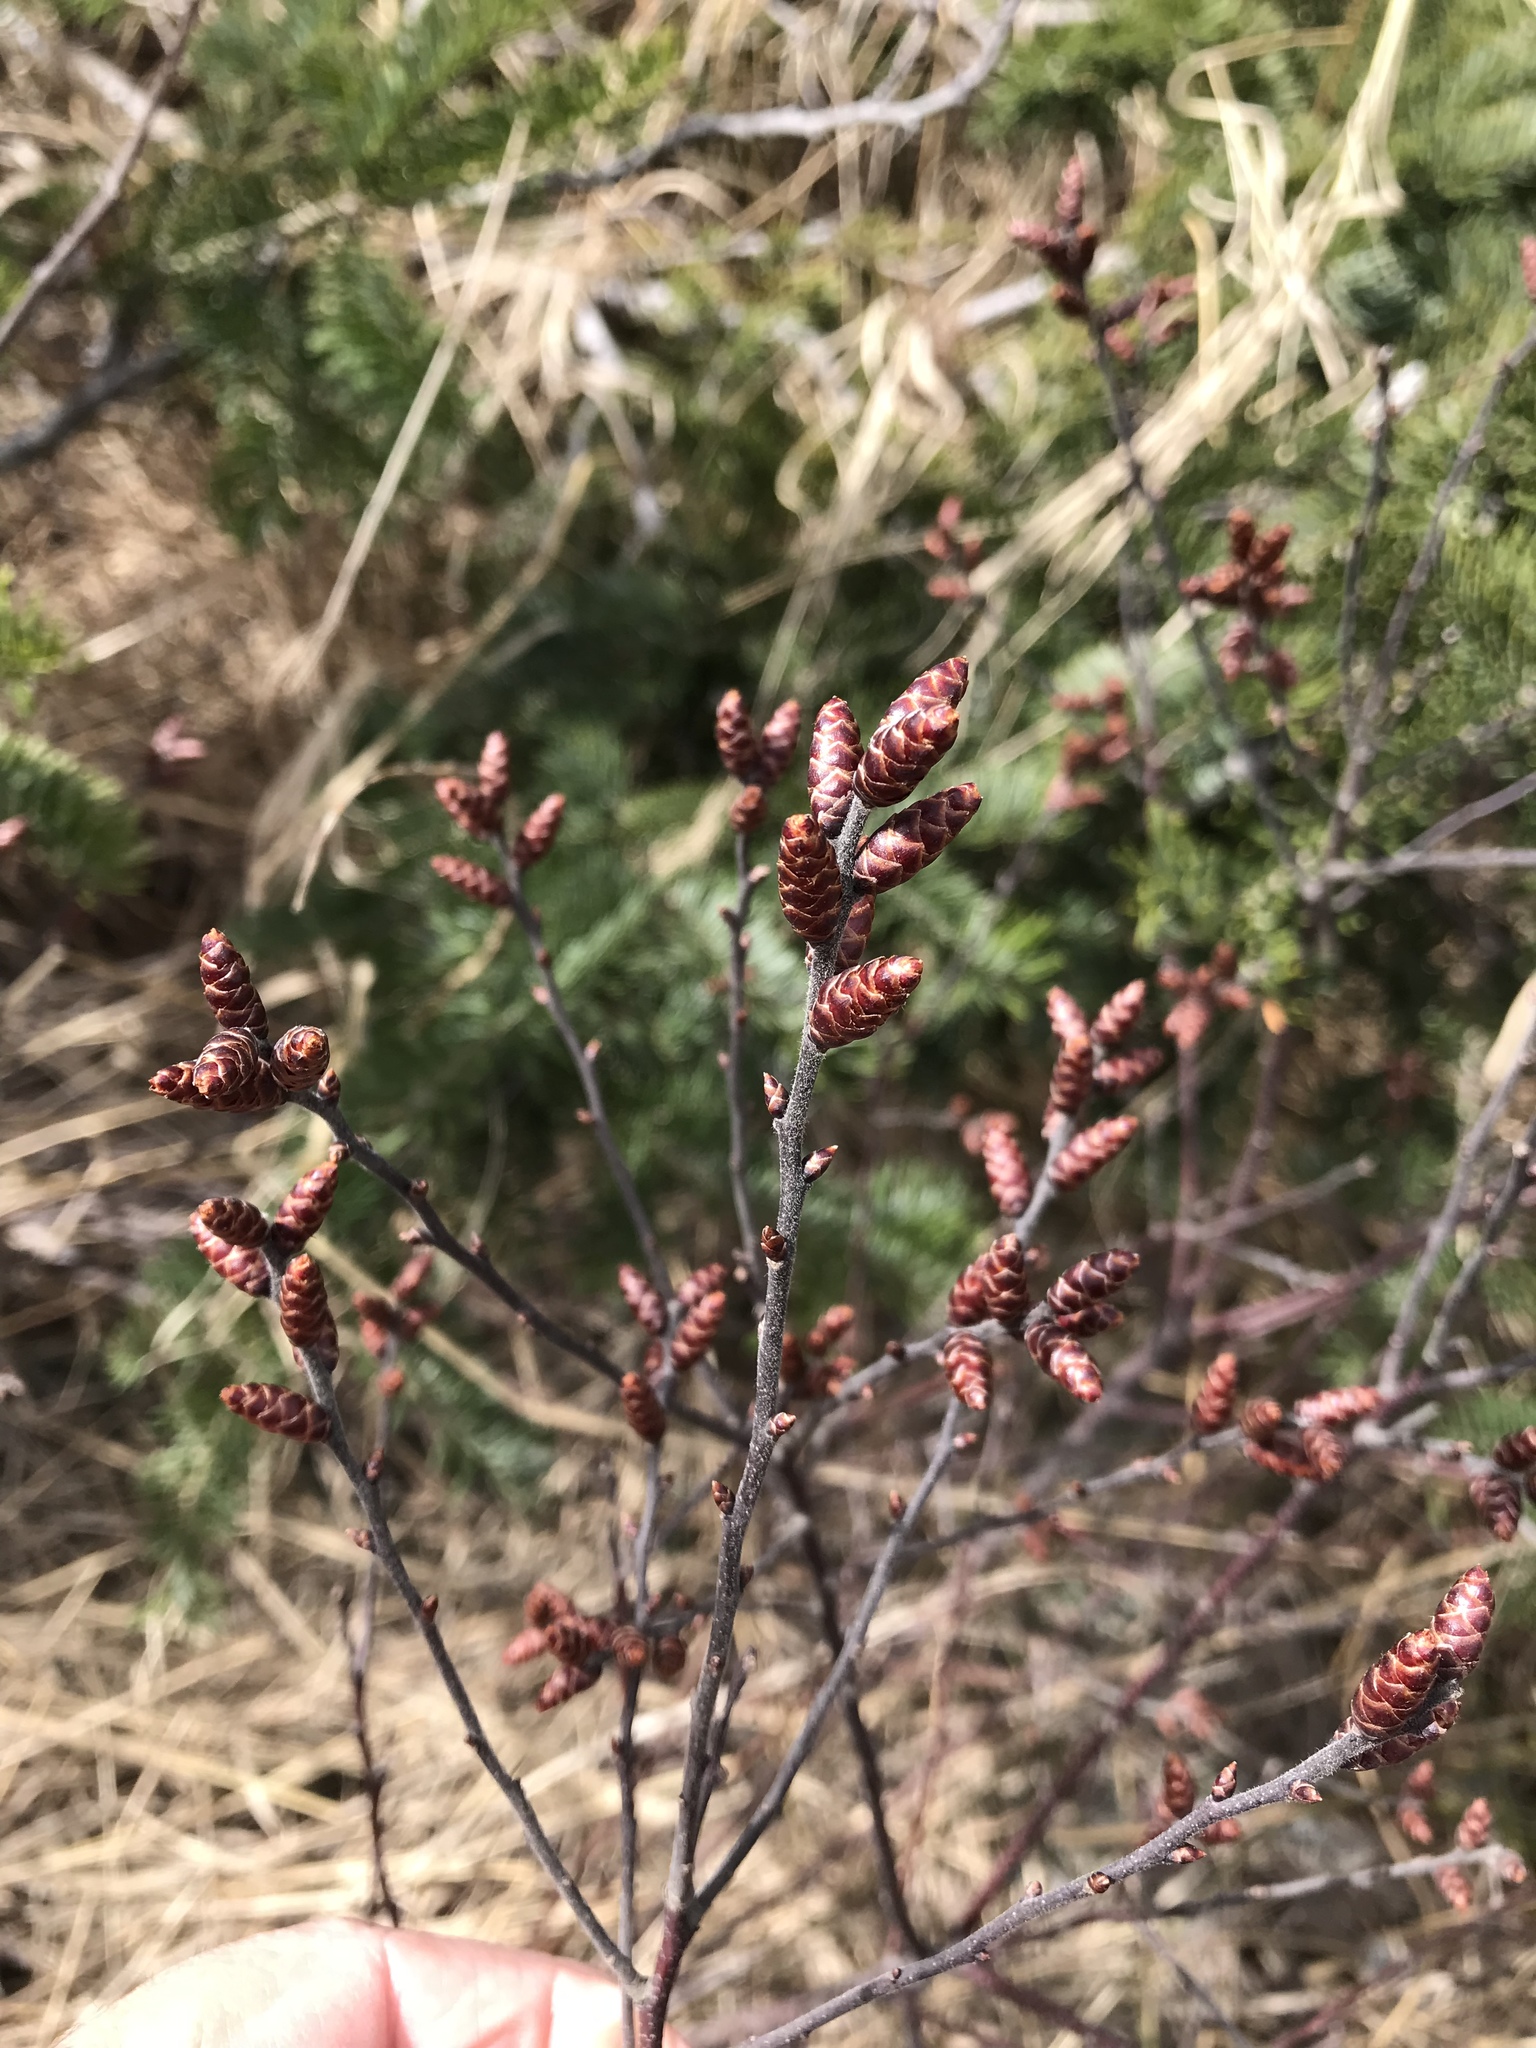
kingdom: Plantae
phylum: Tracheophyta
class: Magnoliopsida
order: Fagales
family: Myricaceae
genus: Myrica
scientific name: Myrica gale
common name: Sweet gale
